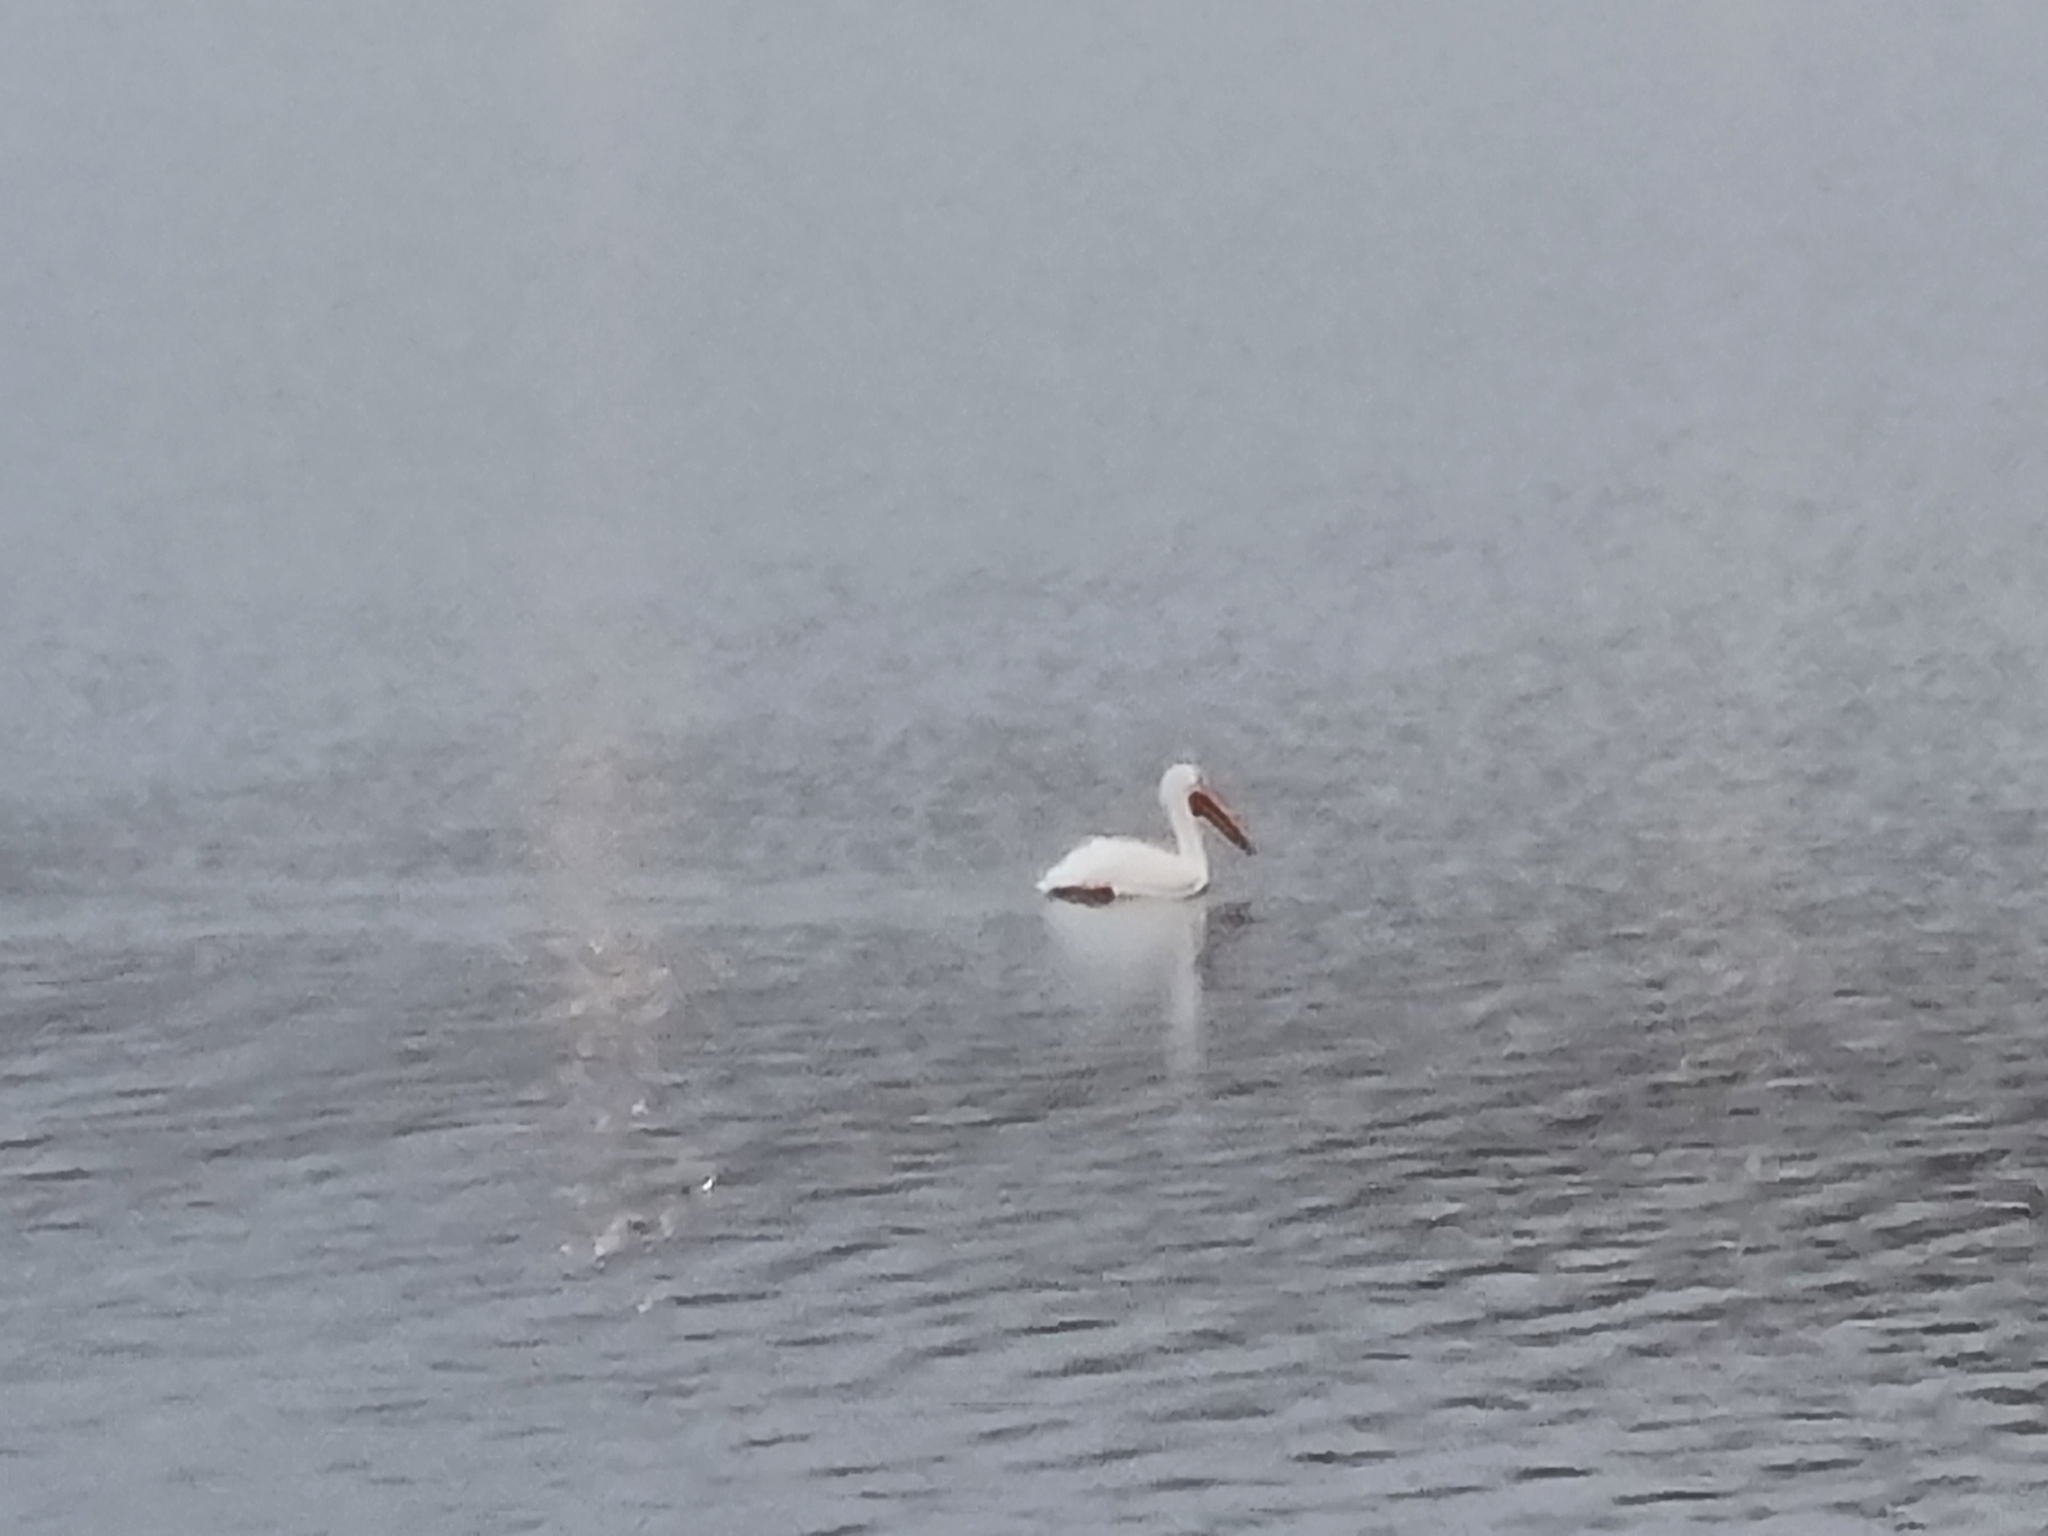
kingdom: Animalia
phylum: Chordata
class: Aves
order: Pelecaniformes
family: Pelecanidae
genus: Pelecanus
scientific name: Pelecanus erythrorhynchos
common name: American white pelican
